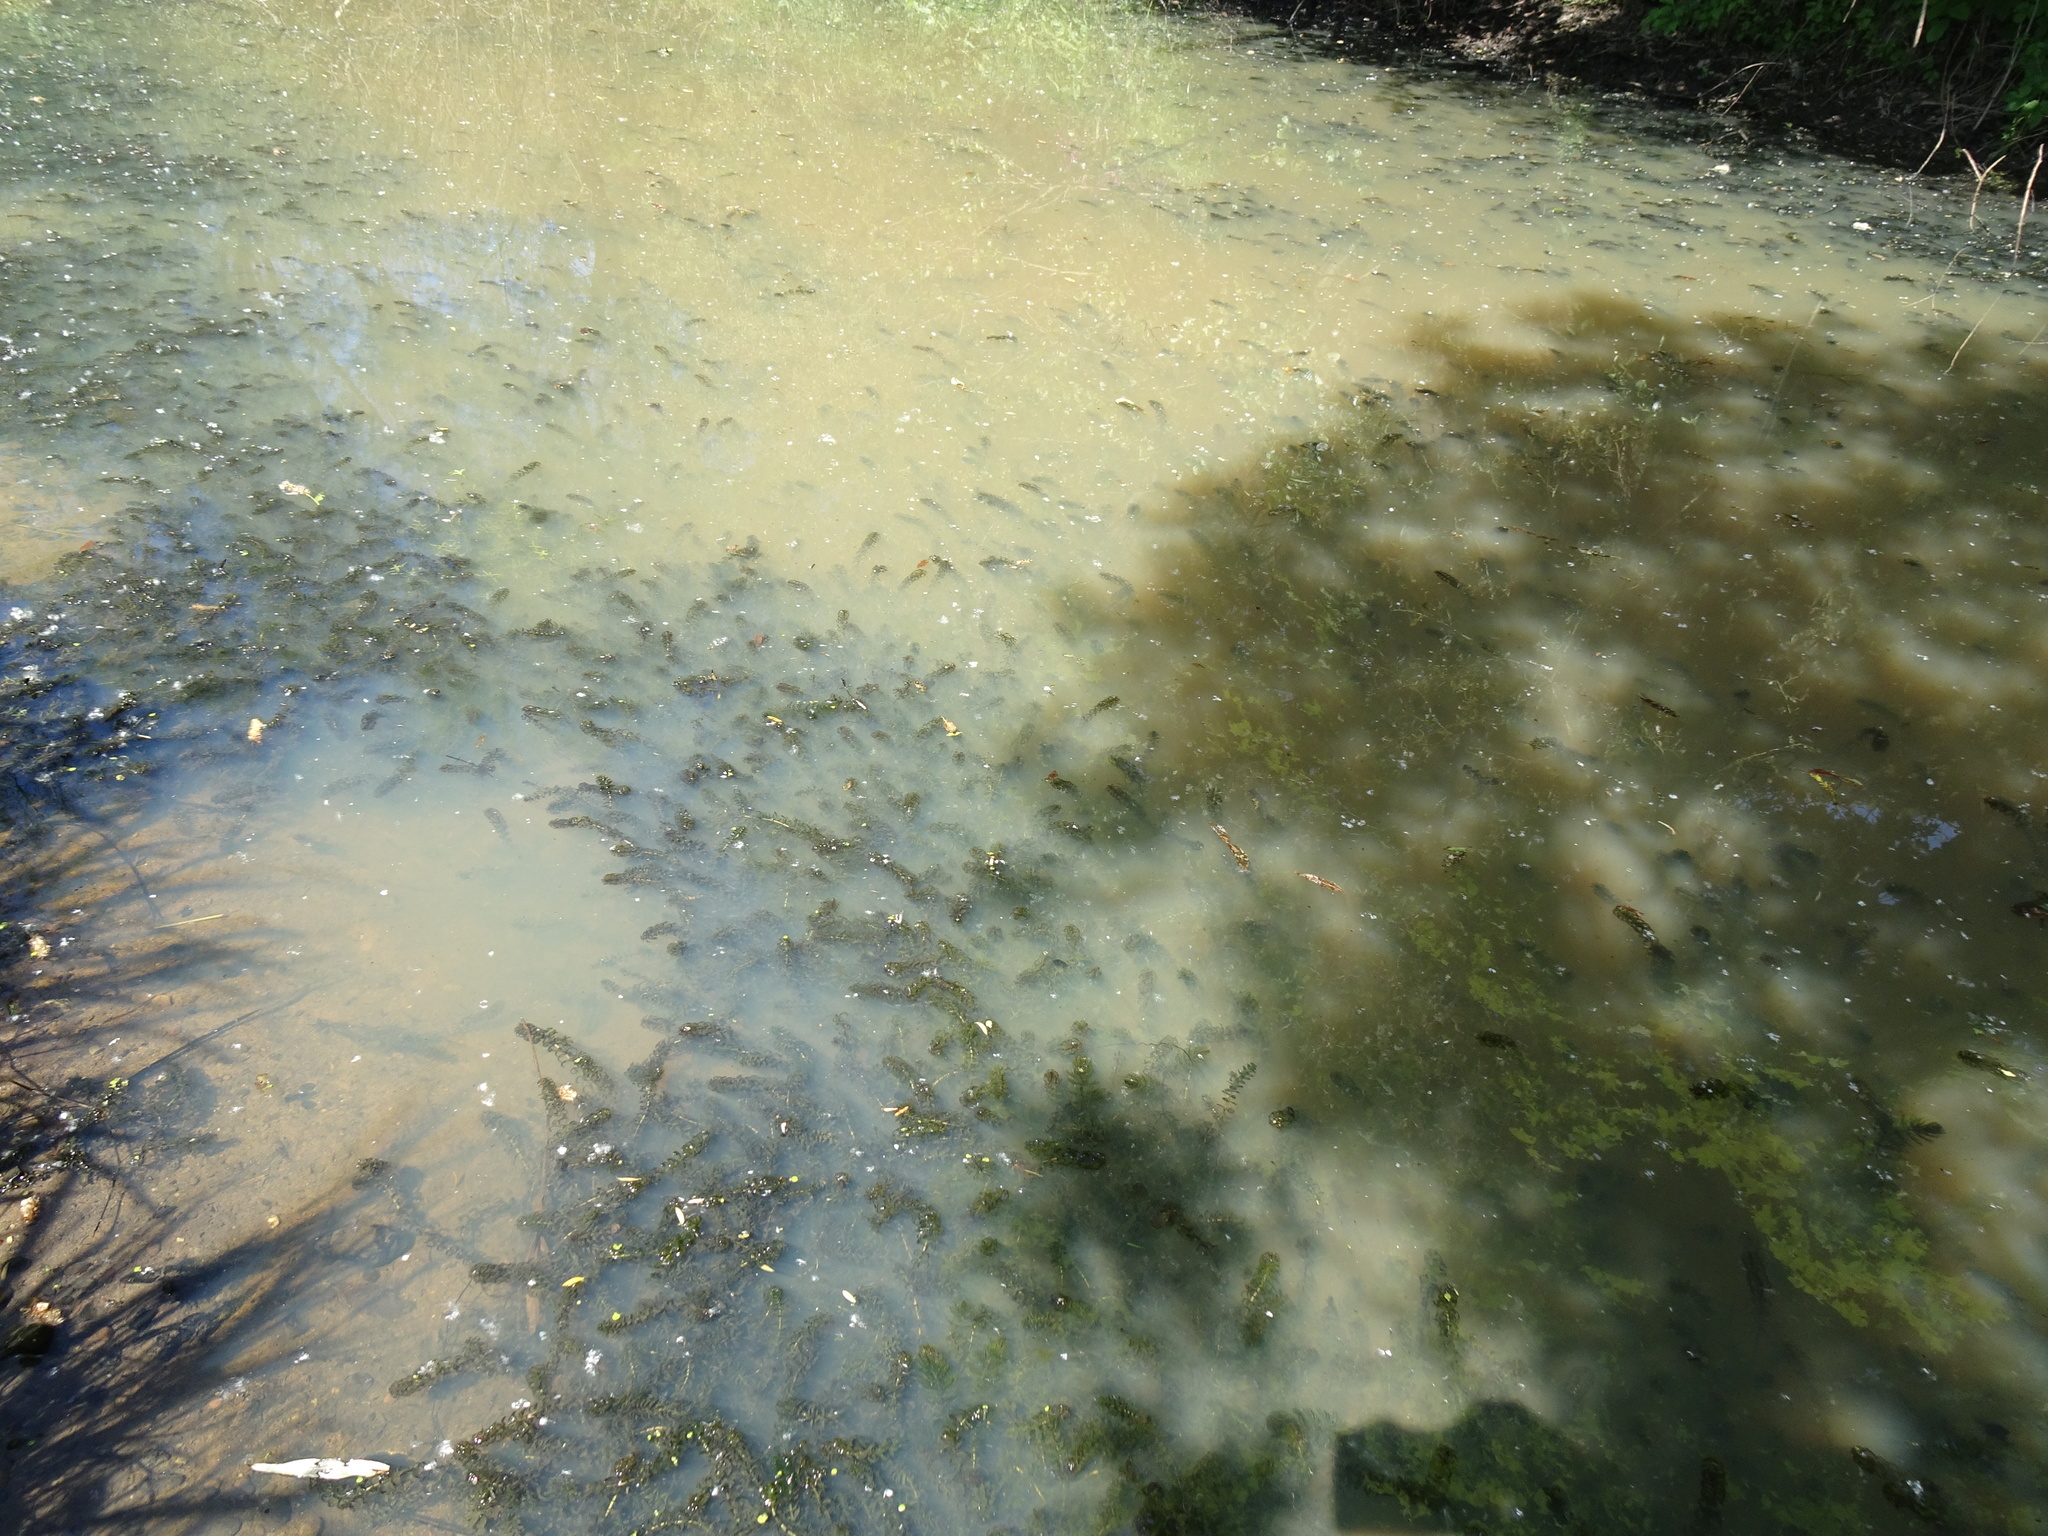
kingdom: Plantae
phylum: Tracheophyta
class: Liliopsida
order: Alismatales
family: Hydrocharitaceae
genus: Elodea
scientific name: Elodea nuttallii
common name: Nuttall's waterweed
